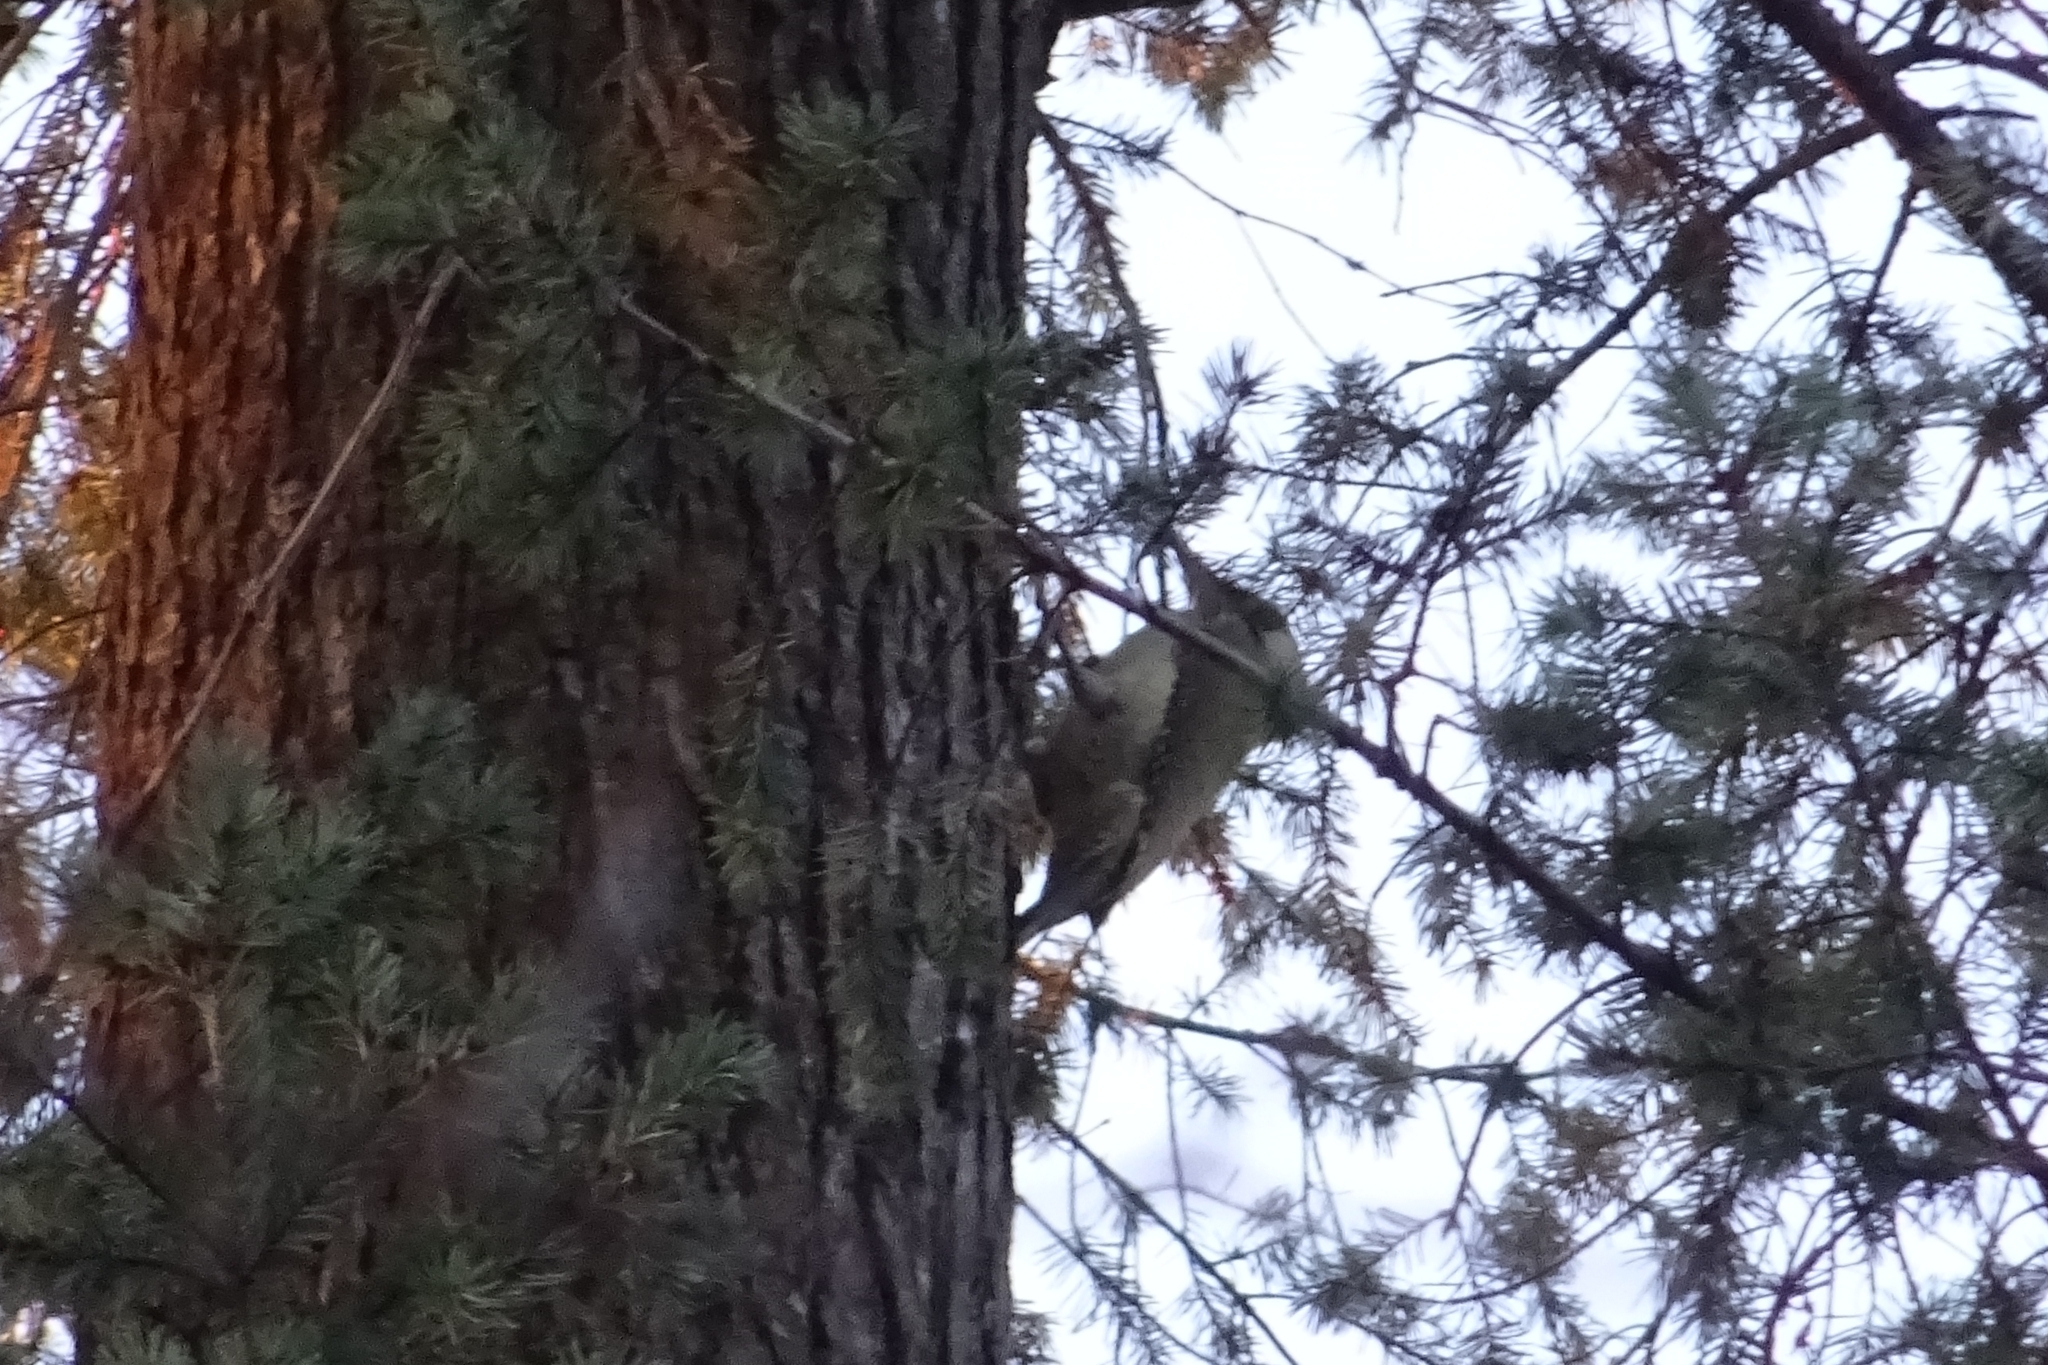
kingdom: Animalia
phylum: Chordata
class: Aves
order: Piciformes
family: Picidae
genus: Picus
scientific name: Picus viridis
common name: European green woodpecker
